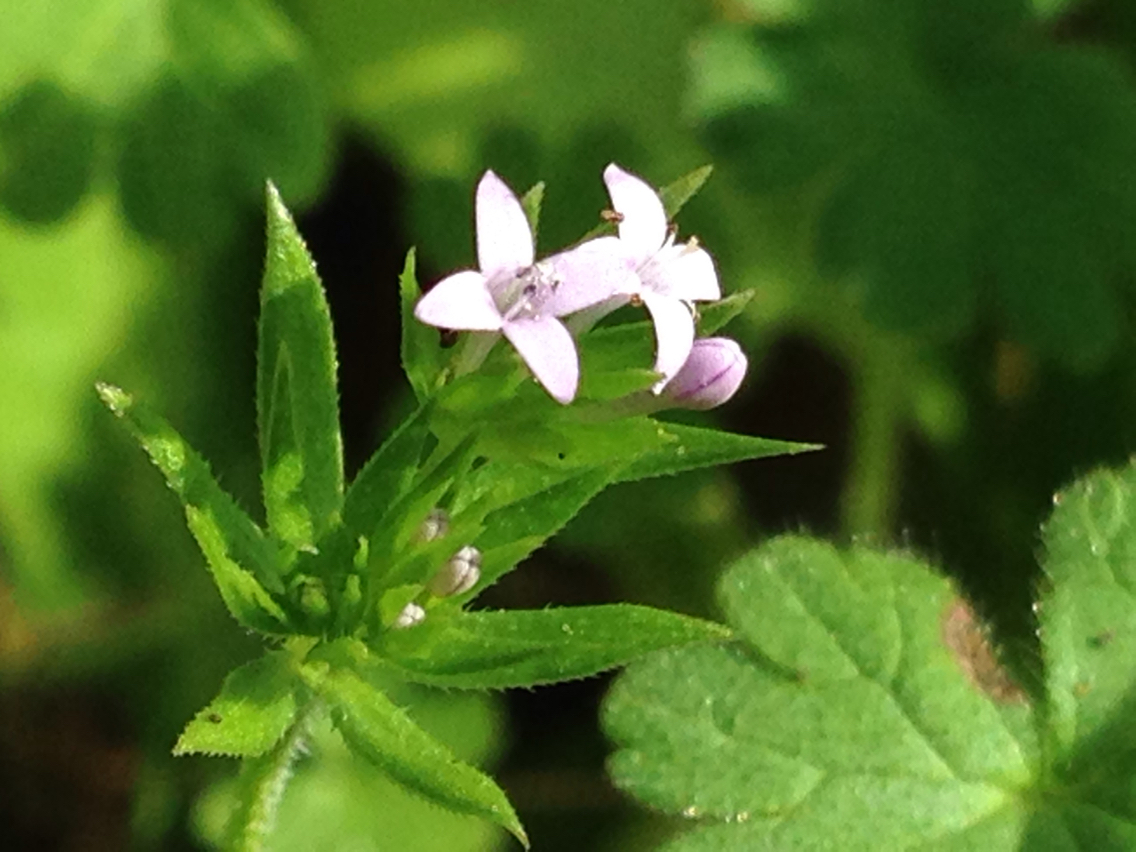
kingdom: Plantae
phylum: Tracheophyta
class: Magnoliopsida
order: Gentianales
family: Rubiaceae
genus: Sherardia
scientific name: Sherardia arvensis
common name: Field madder
